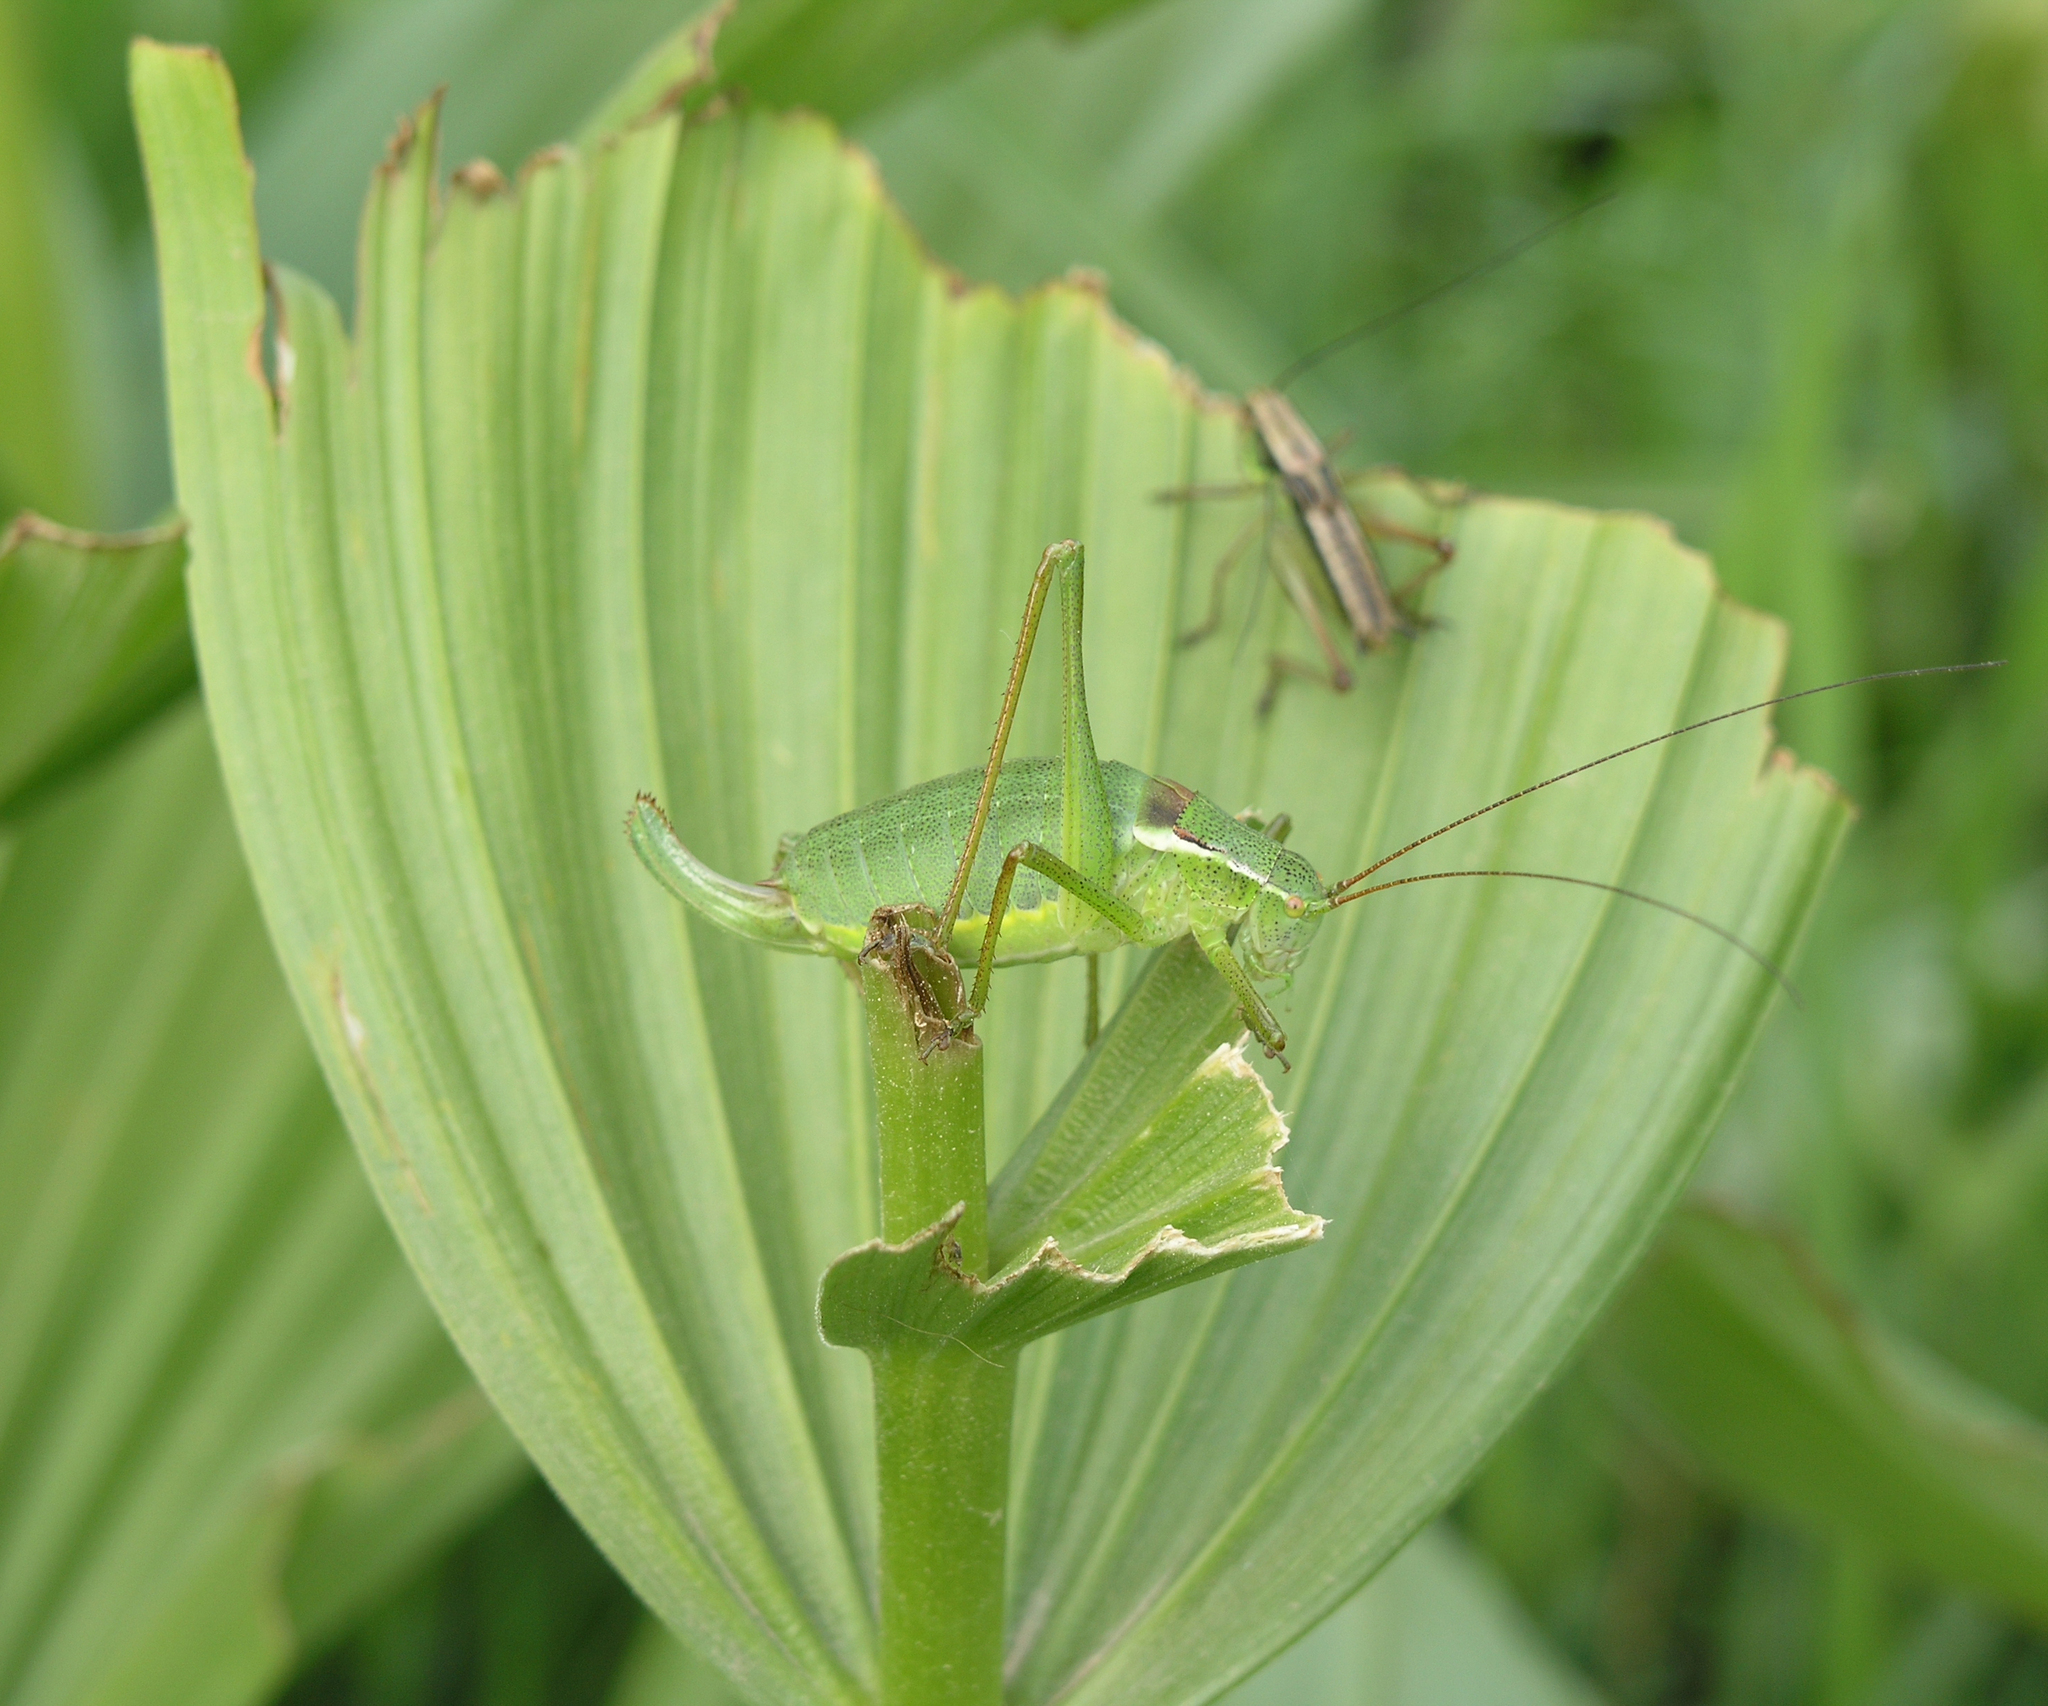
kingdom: Plantae
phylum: Tracheophyta
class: Liliopsida
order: Liliales
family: Melanthiaceae
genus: Veratrum
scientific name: Veratrum lobelianum
